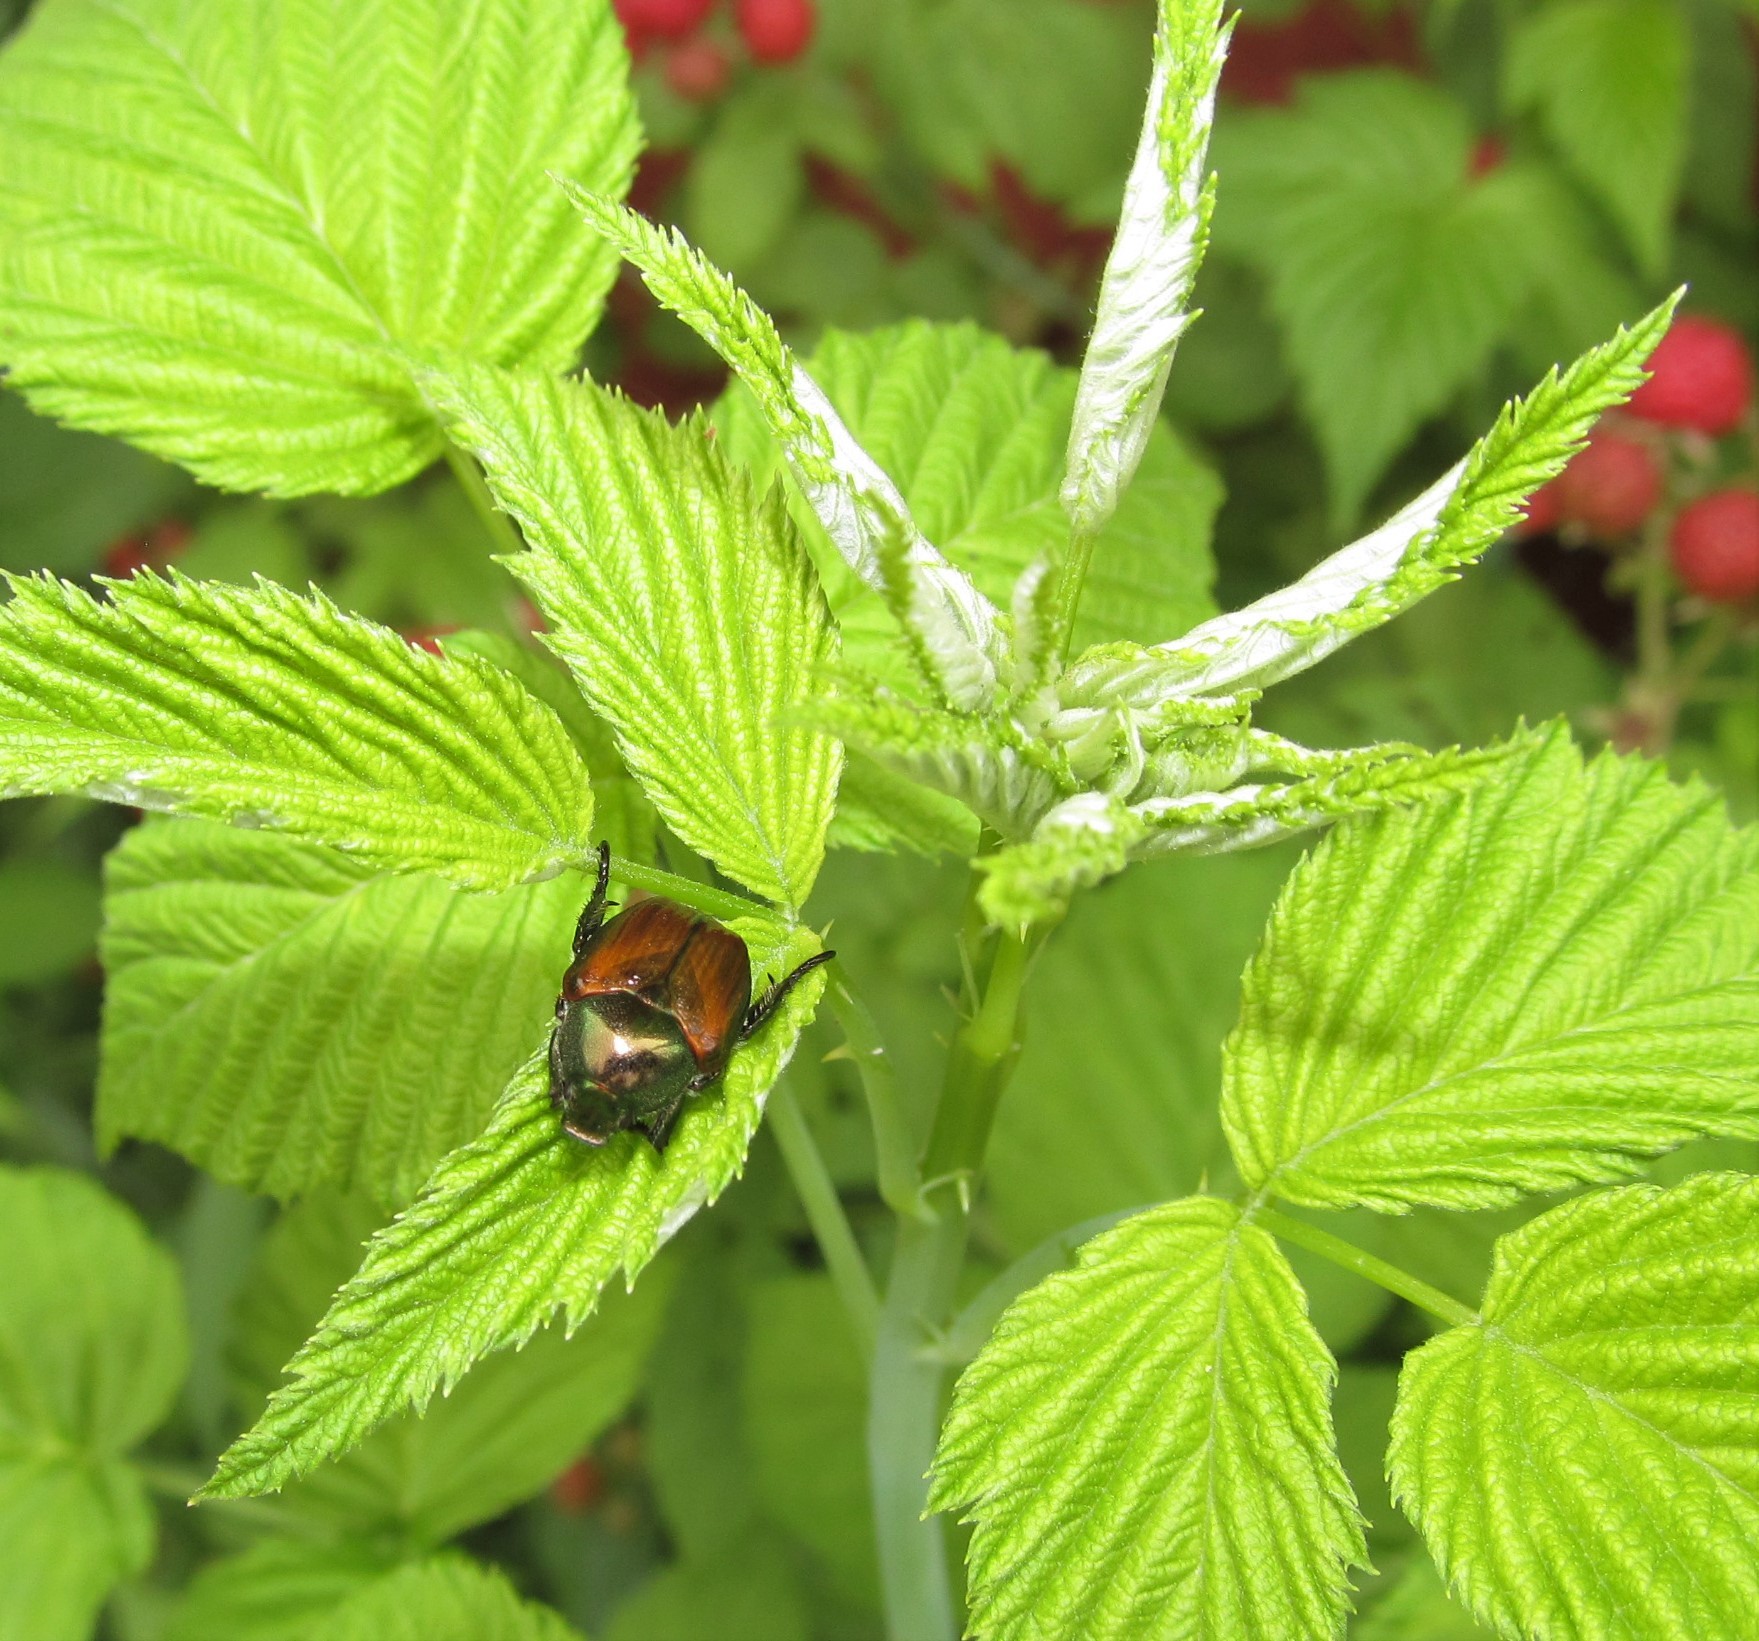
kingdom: Animalia
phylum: Arthropoda
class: Insecta
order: Coleoptera
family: Scarabaeidae
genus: Popillia
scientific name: Popillia japonica
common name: Japanese beetle
